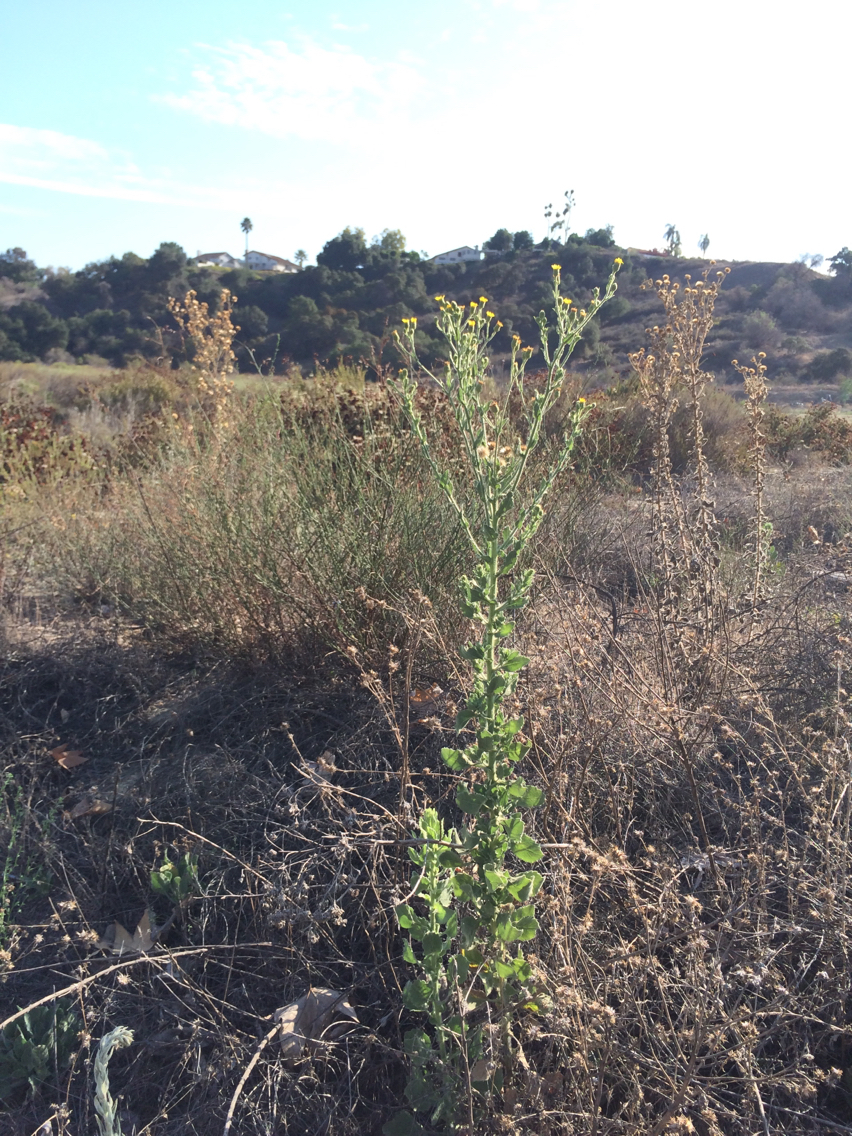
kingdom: Plantae
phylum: Tracheophyta
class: Magnoliopsida
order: Asterales
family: Asteraceae
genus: Heterotheca
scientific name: Heterotheca grandiflora
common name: Telegraphweed
